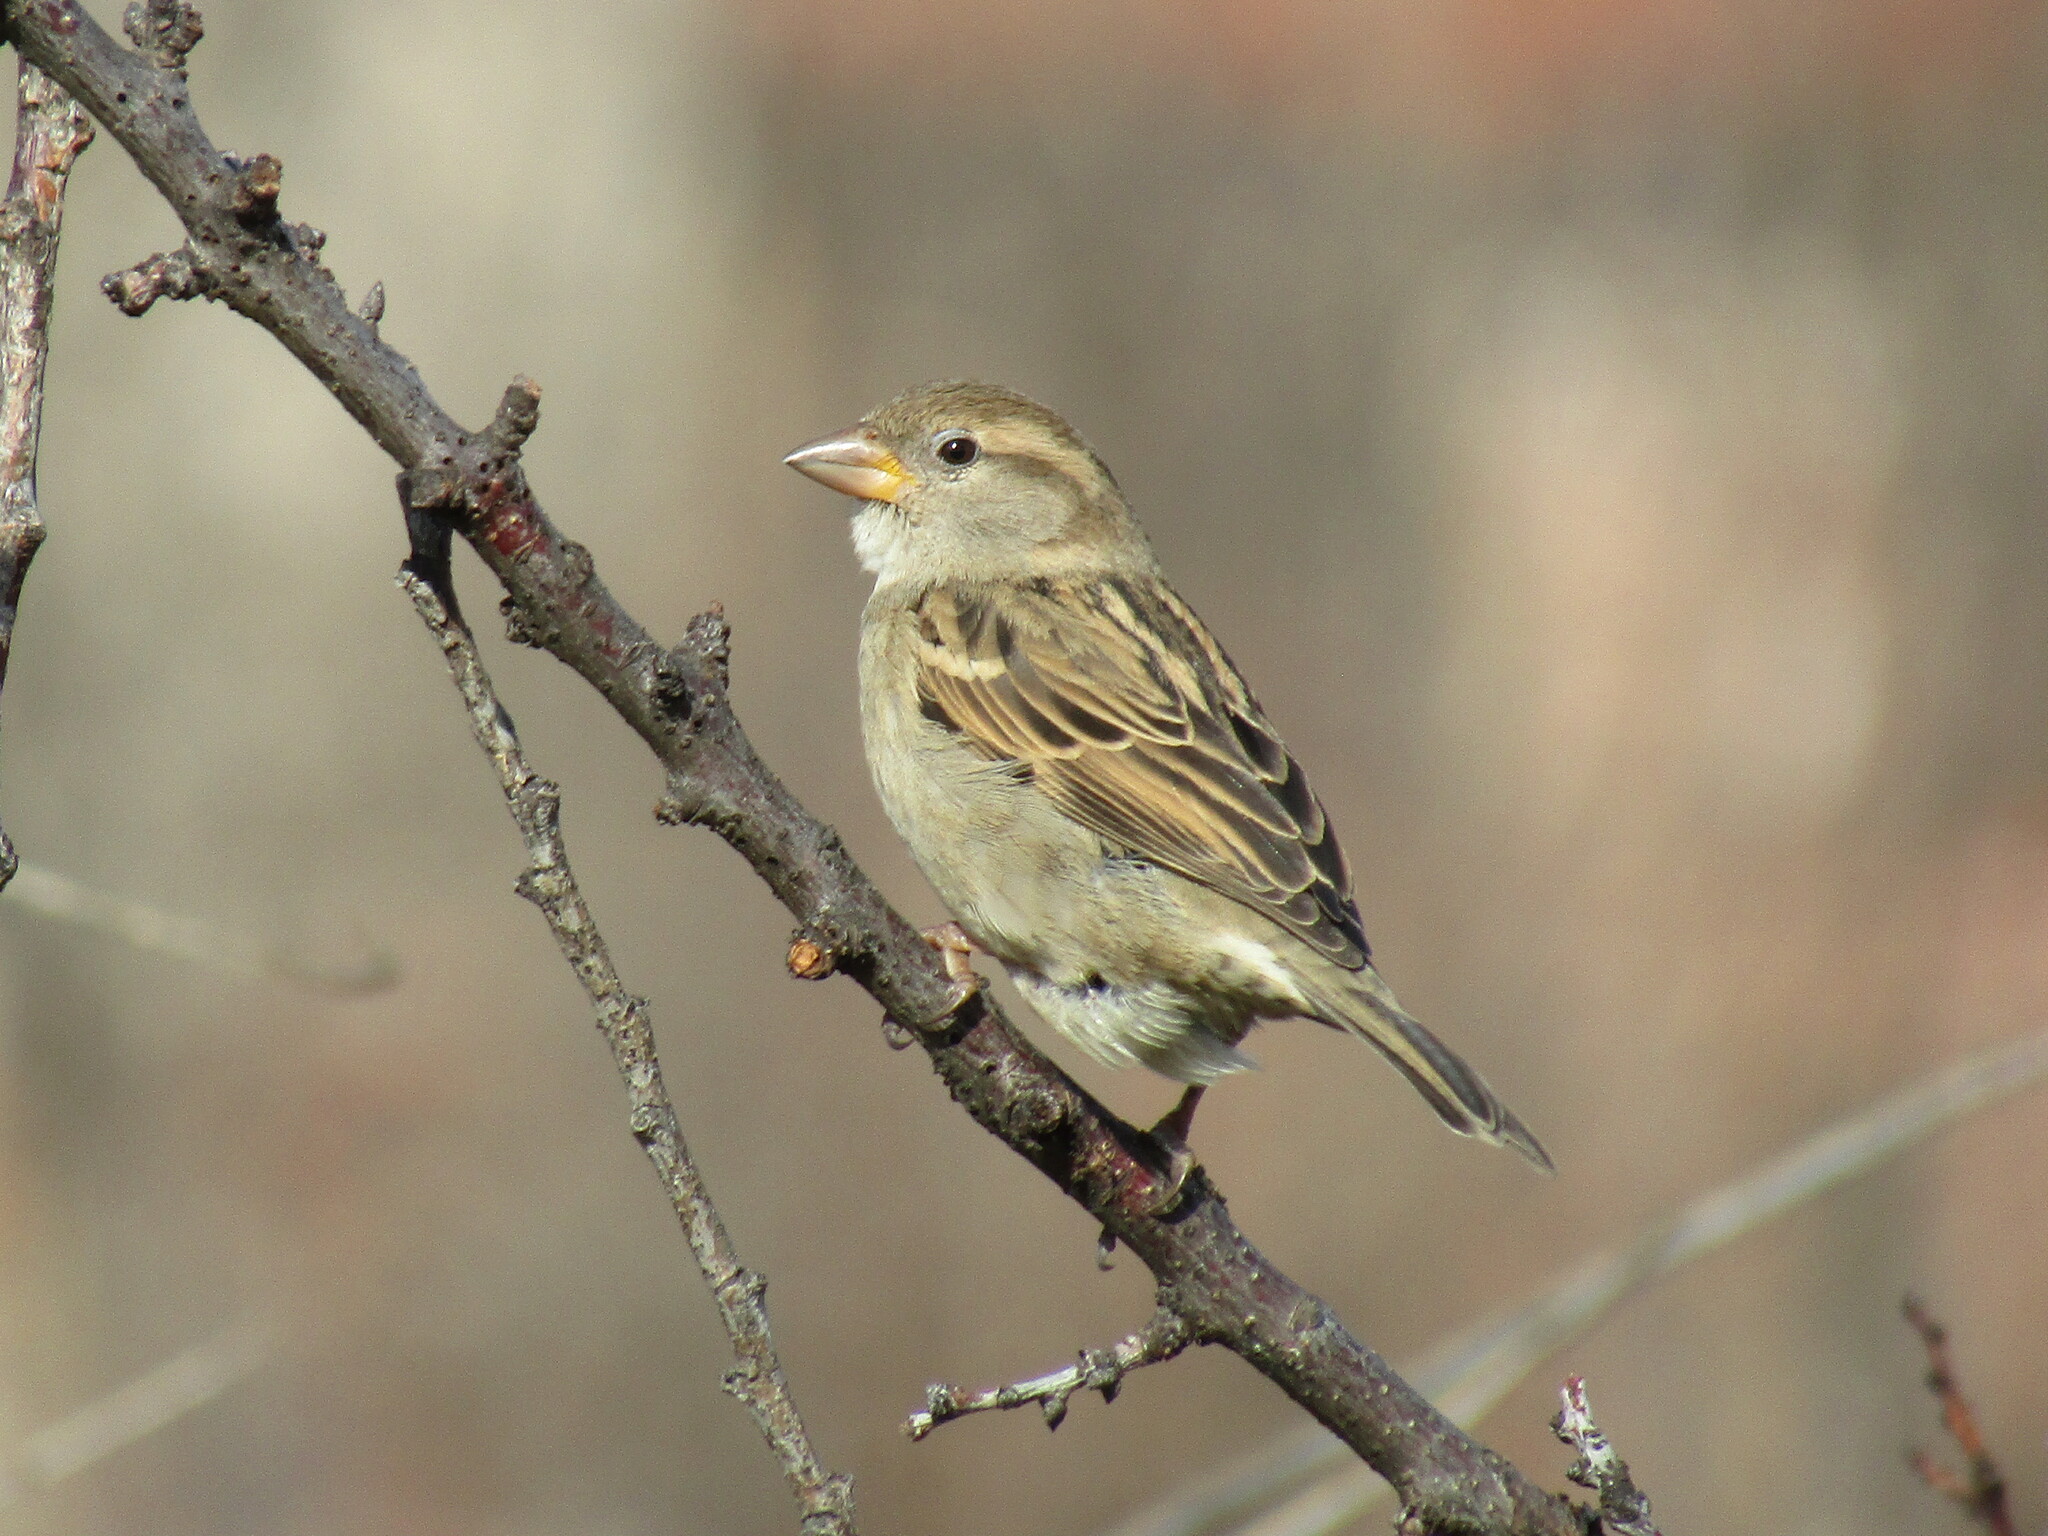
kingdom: Animalia
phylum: Chordata
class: Aves
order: Passeriformes
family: Passeridae
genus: Passer
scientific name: Passer domesticus
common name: House sparrow
